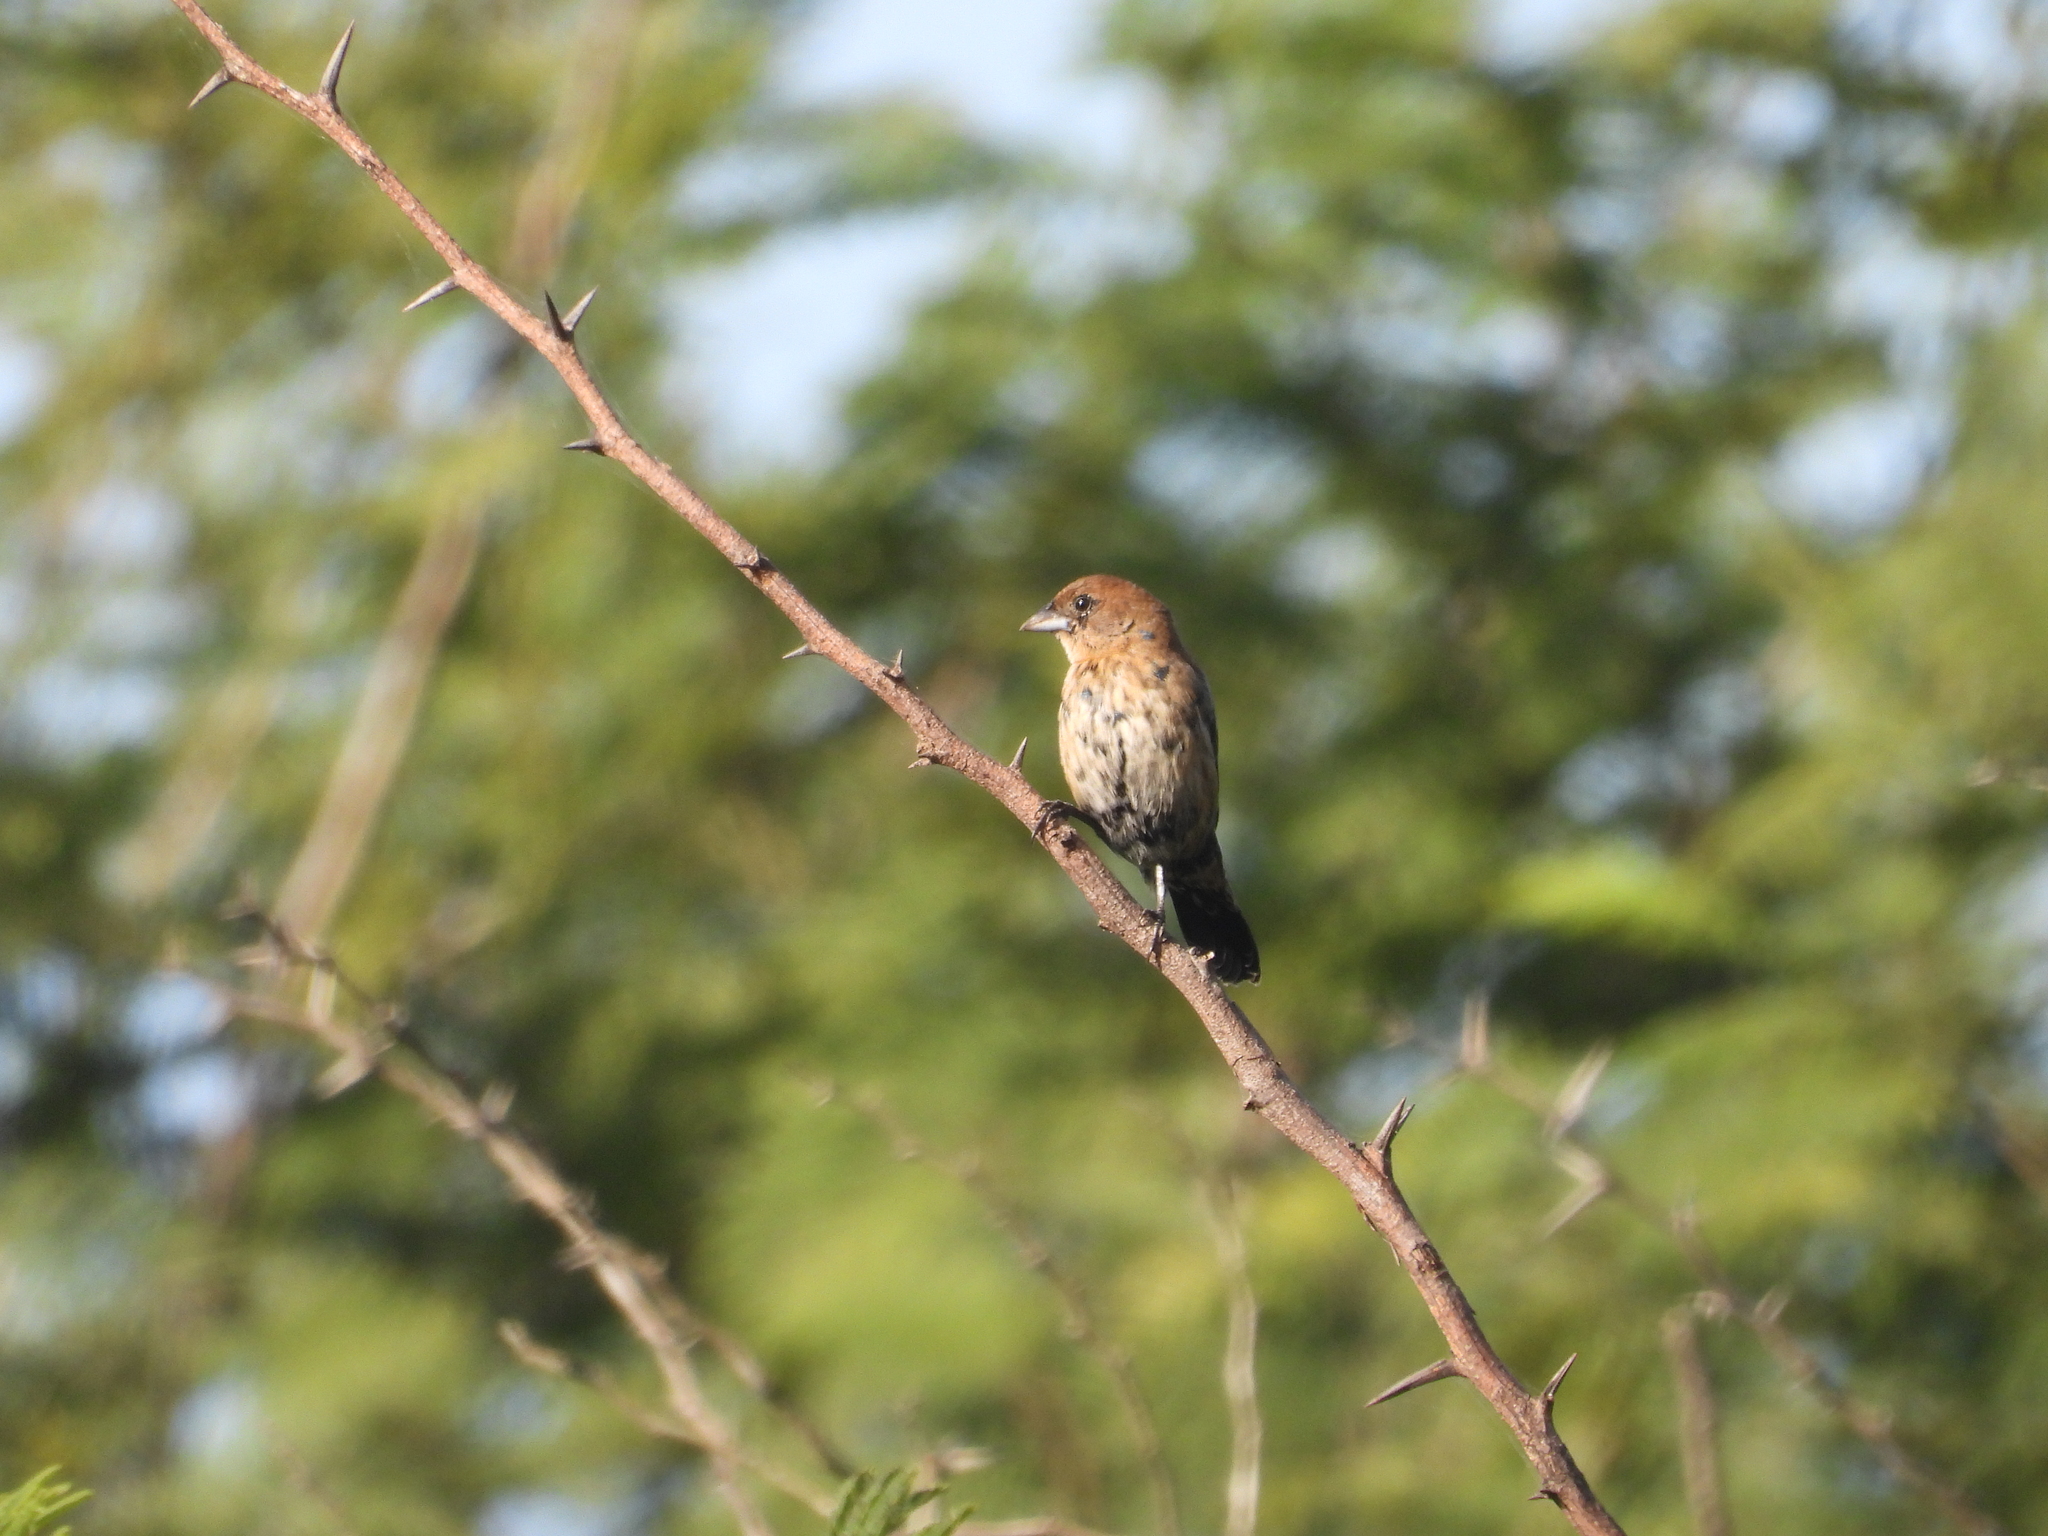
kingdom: Animalia
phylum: Chordata
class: Aves
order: Passeriformes
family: Thraupidae
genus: Volatinia
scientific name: Volatinia jacarina
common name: Blue-black grassquit
